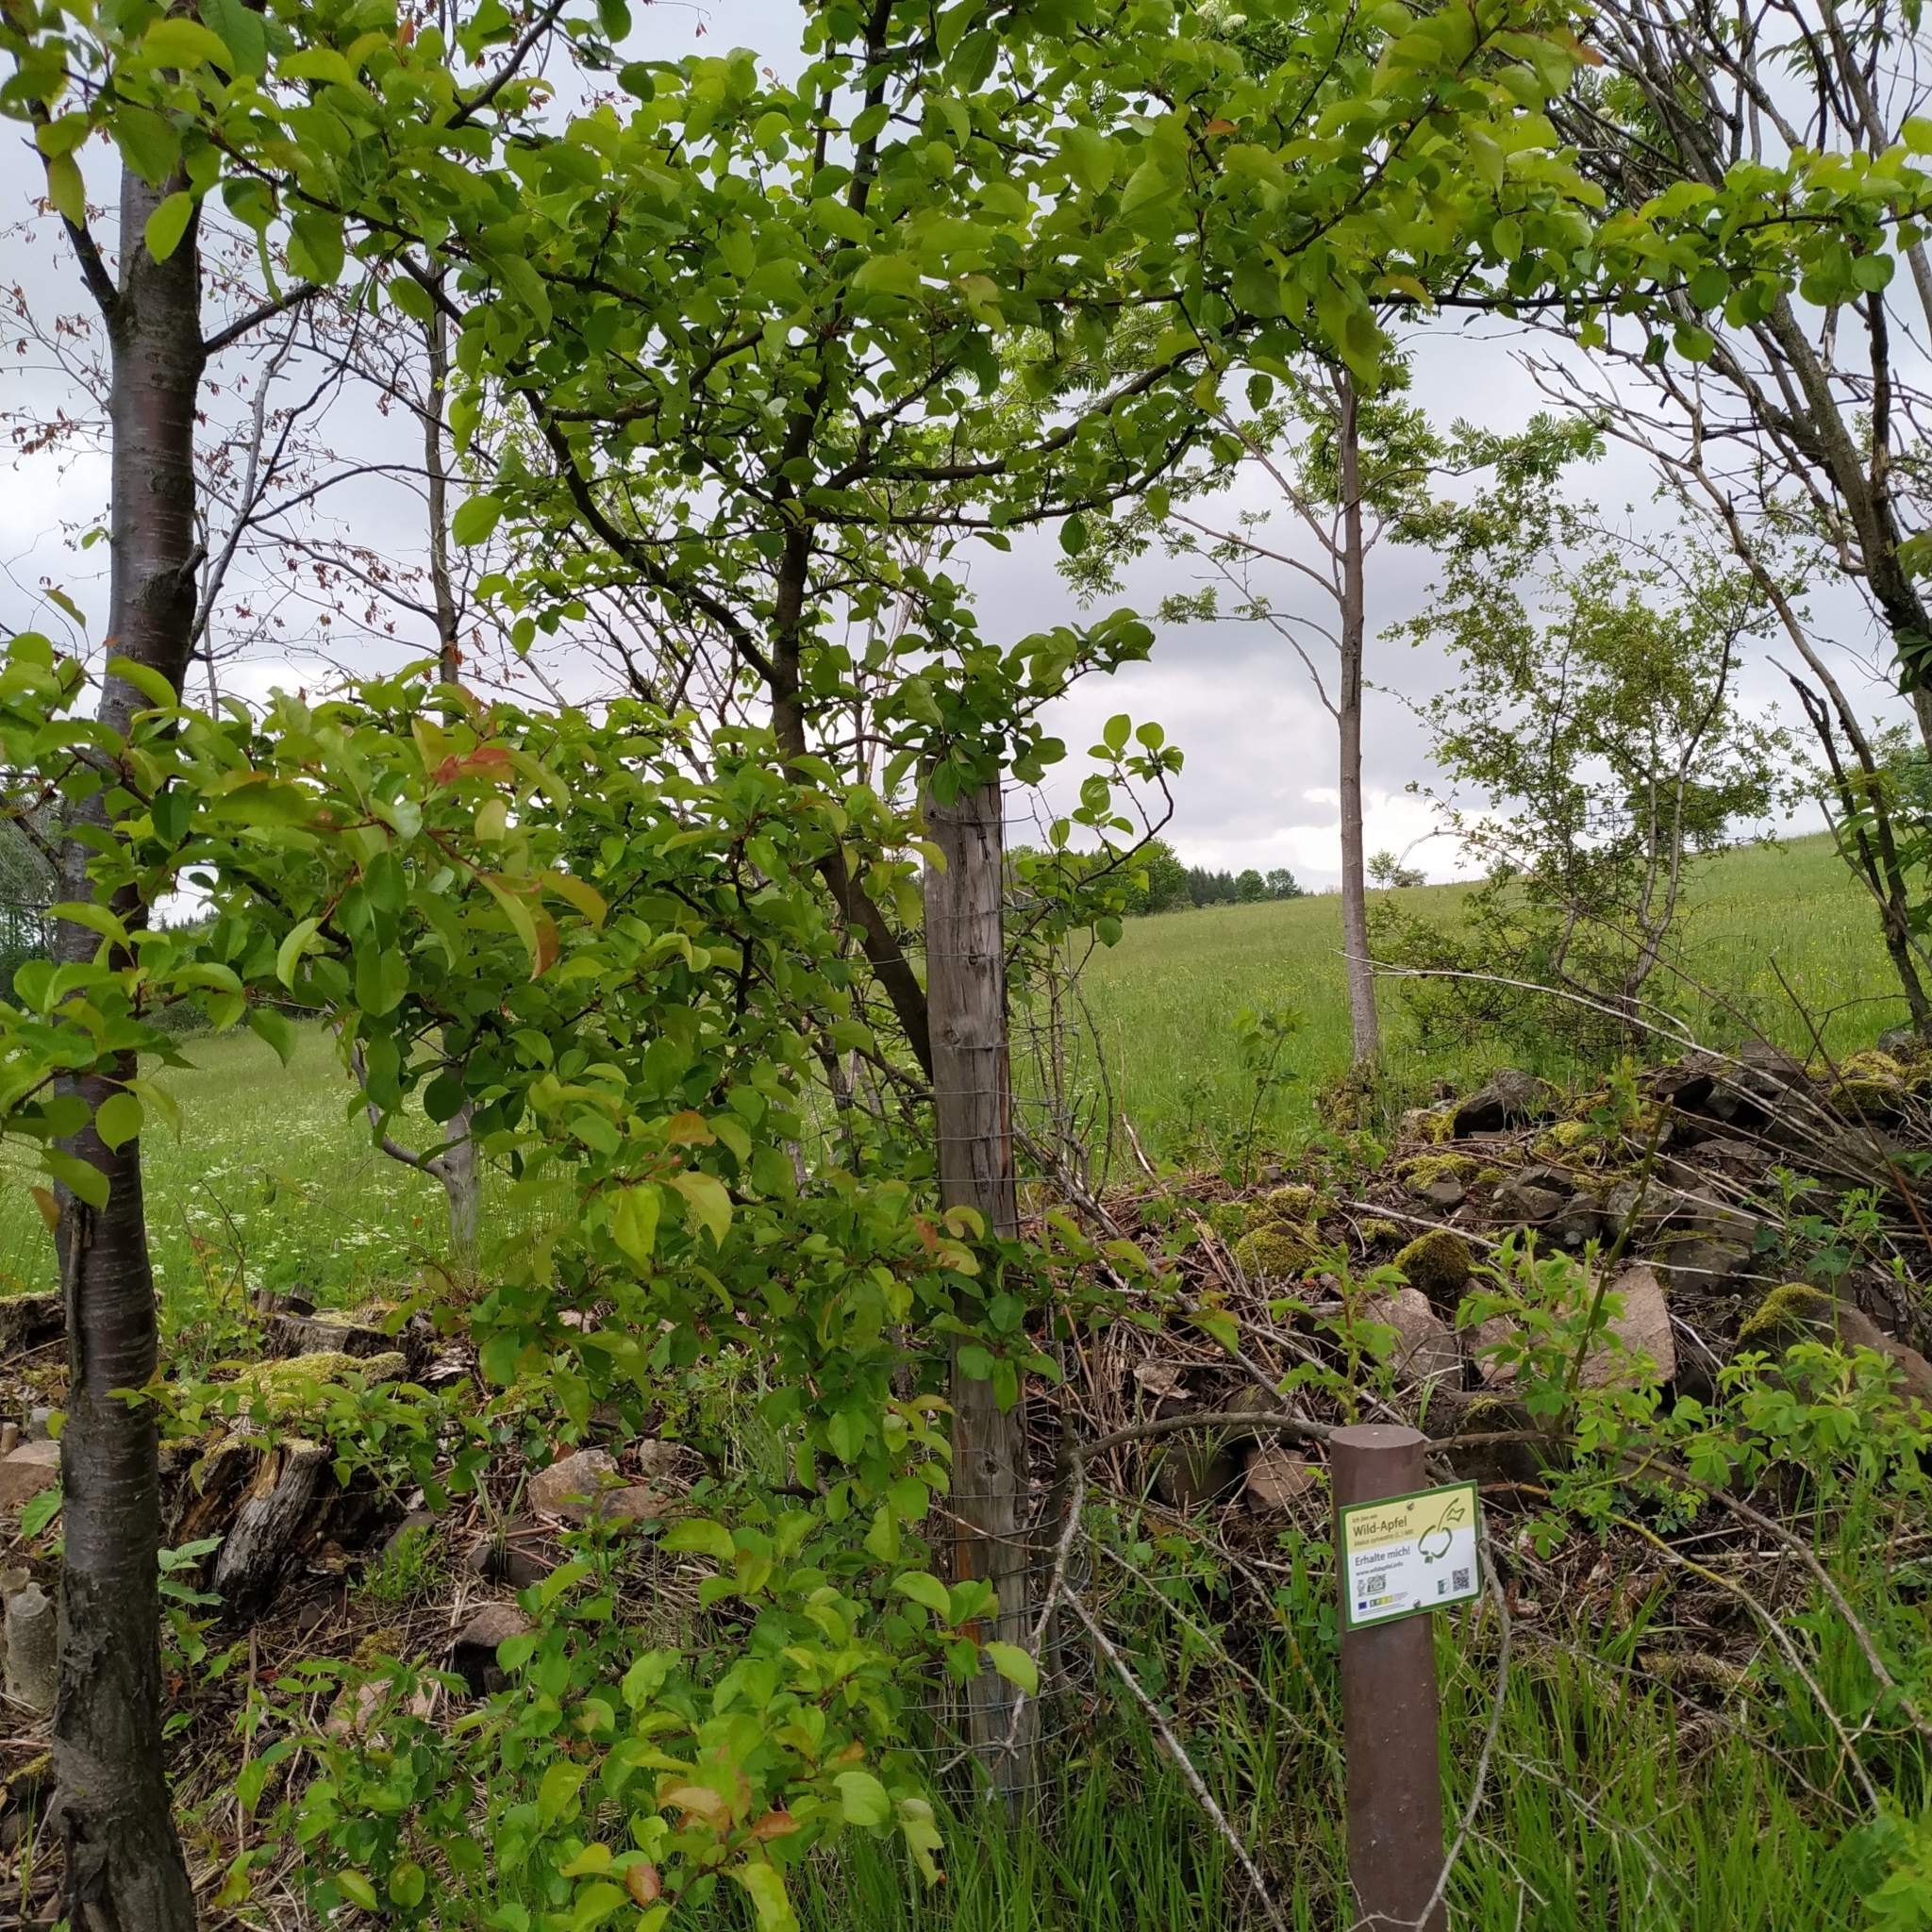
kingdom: Plantae
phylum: Tracheophyta
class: Magnoliopsida
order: Rosales
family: Rosaceae
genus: Malus
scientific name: Malus sylvestris
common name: Crab apple
